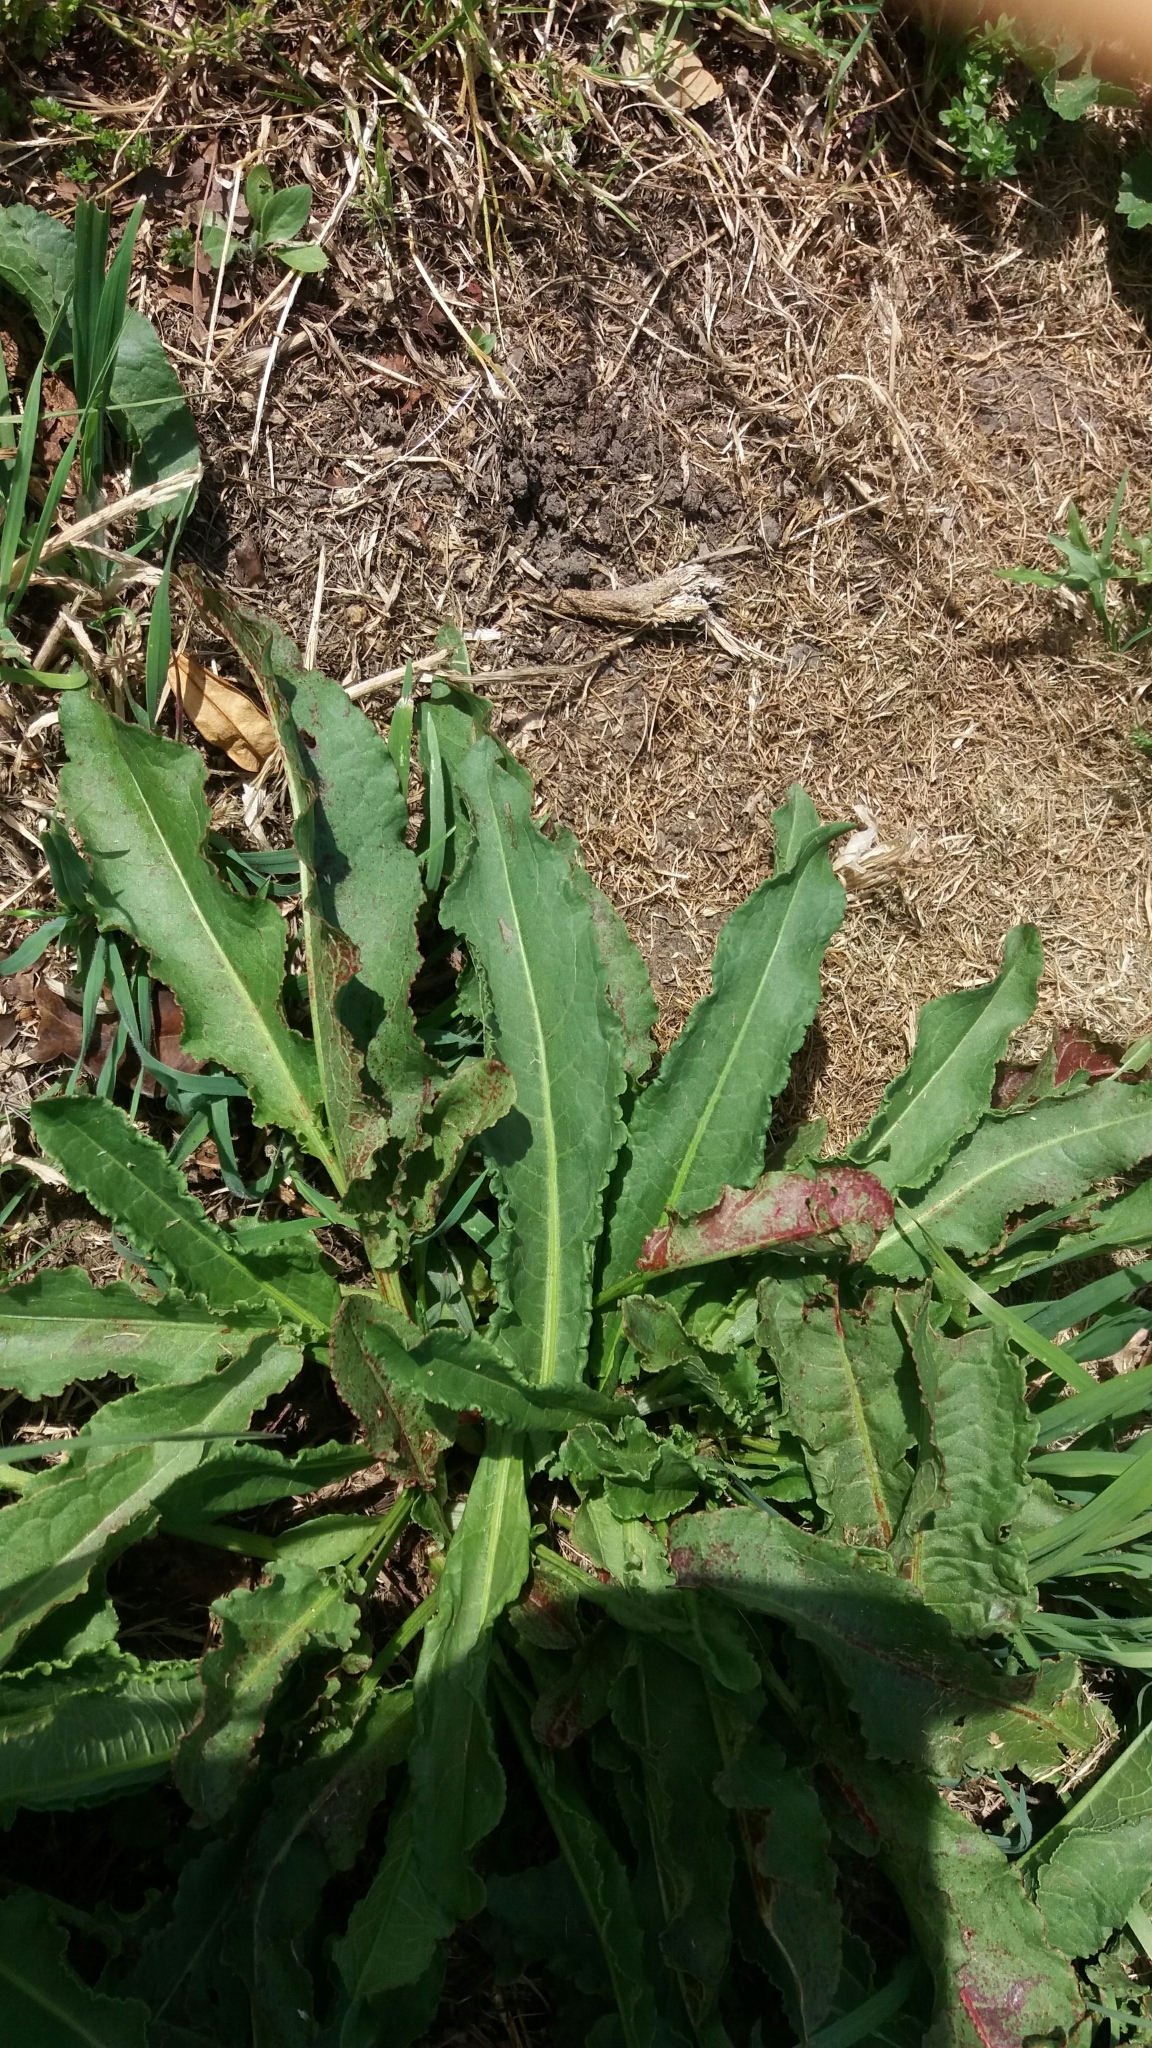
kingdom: Plantae
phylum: Tracheophyta
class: Magnoliopsida
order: Caryophyllales
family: Polygonaceae
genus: Rumex
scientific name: Rumex obtusifolius
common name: Bitter dock
